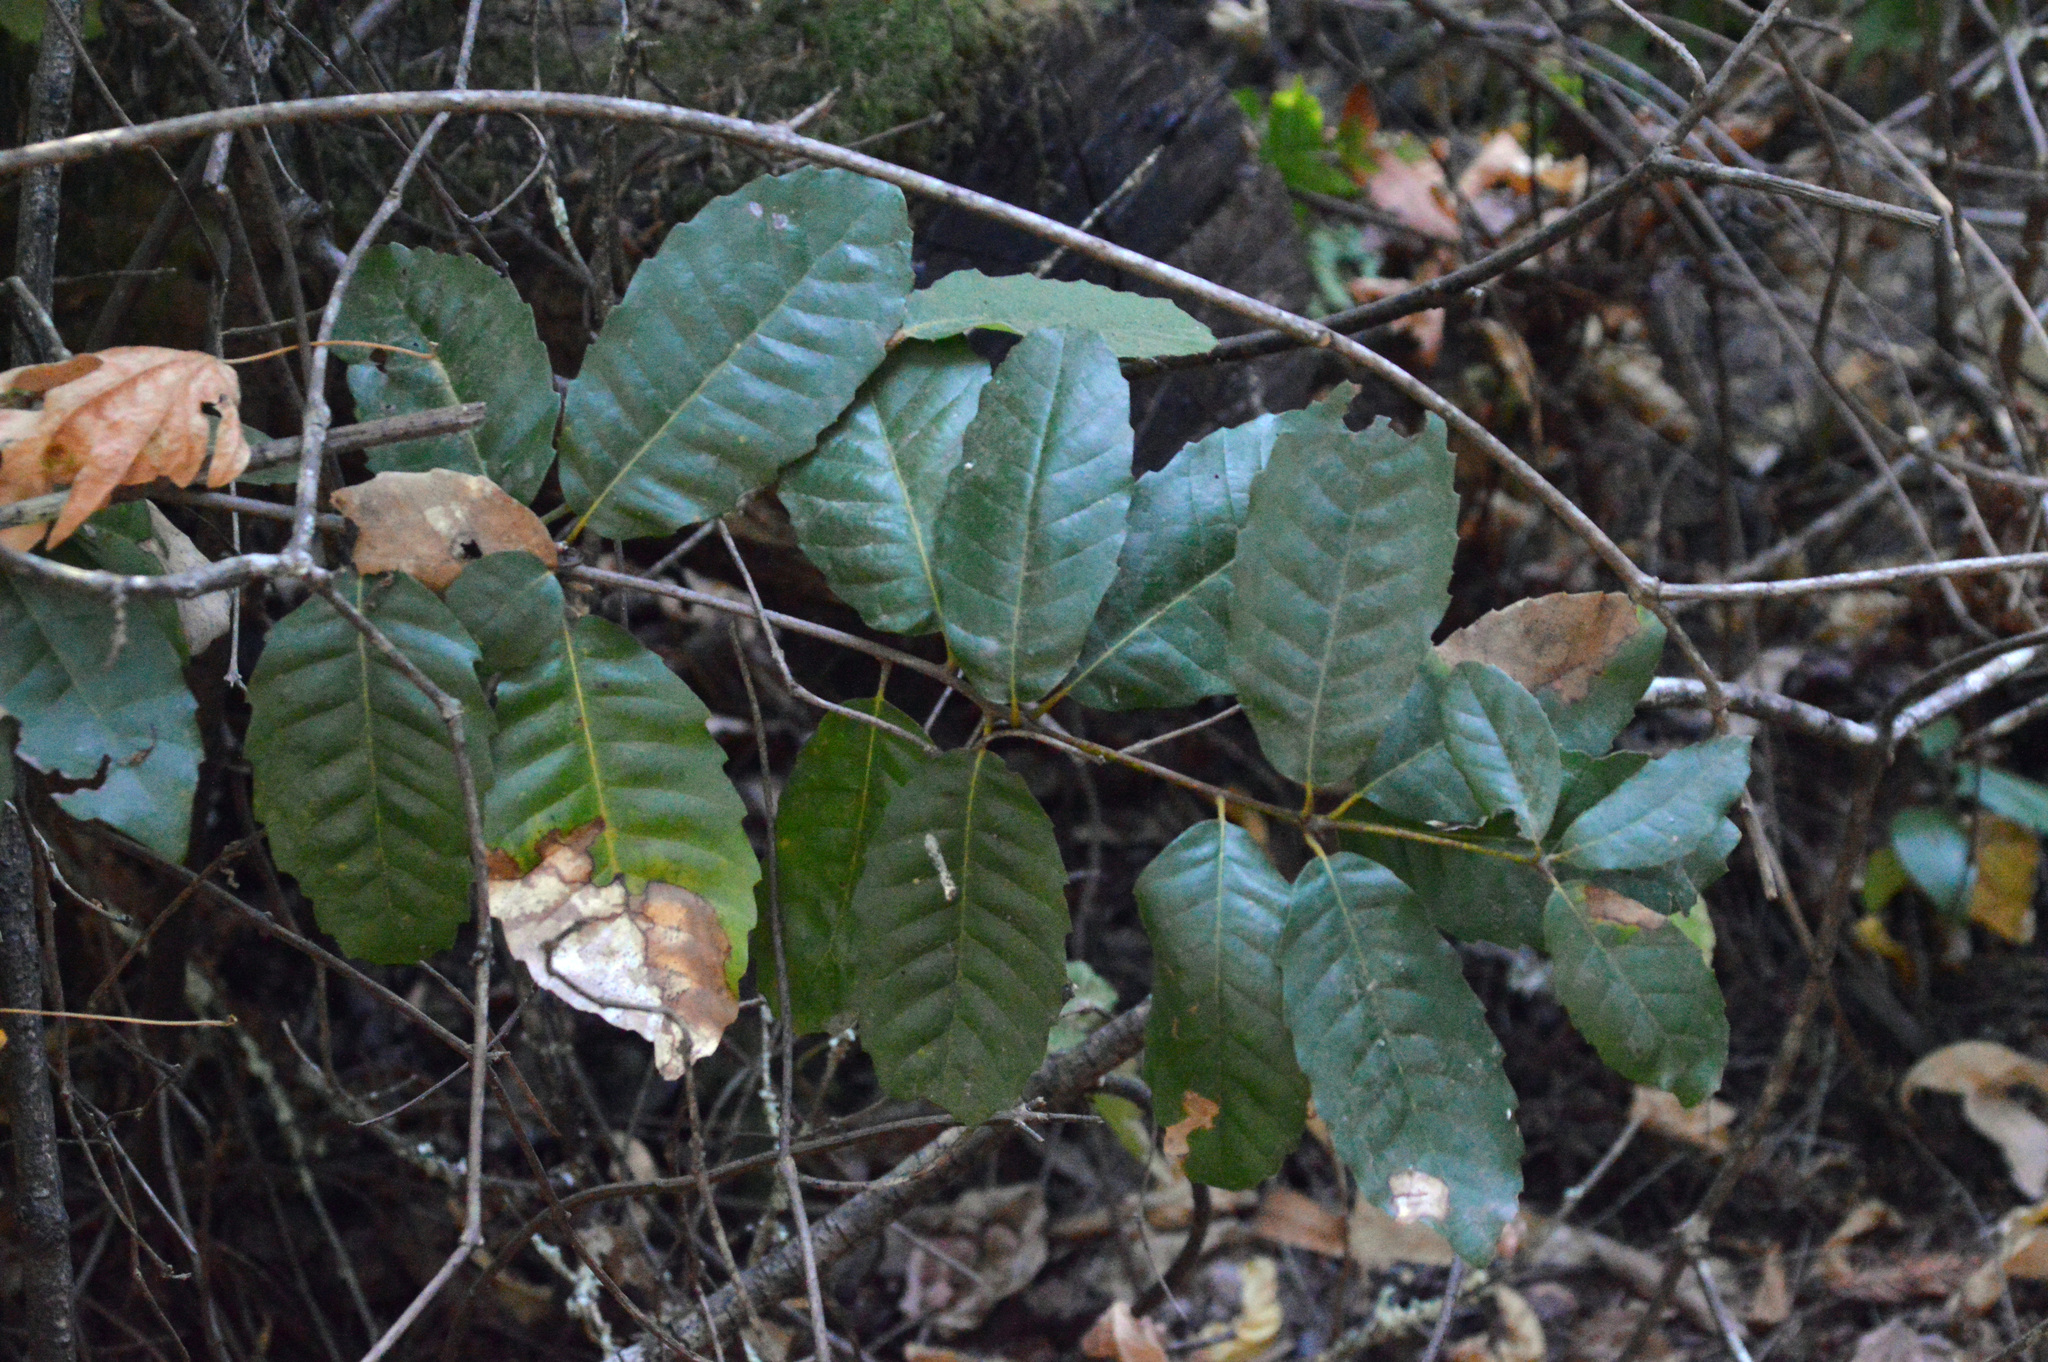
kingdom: Plantae
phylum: Tracheophyta
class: Magnoliopsida
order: Fagales
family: Fagaceae
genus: Notholithocarpus
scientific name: Notholithocarpus densiflorus
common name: Tan bark oak
